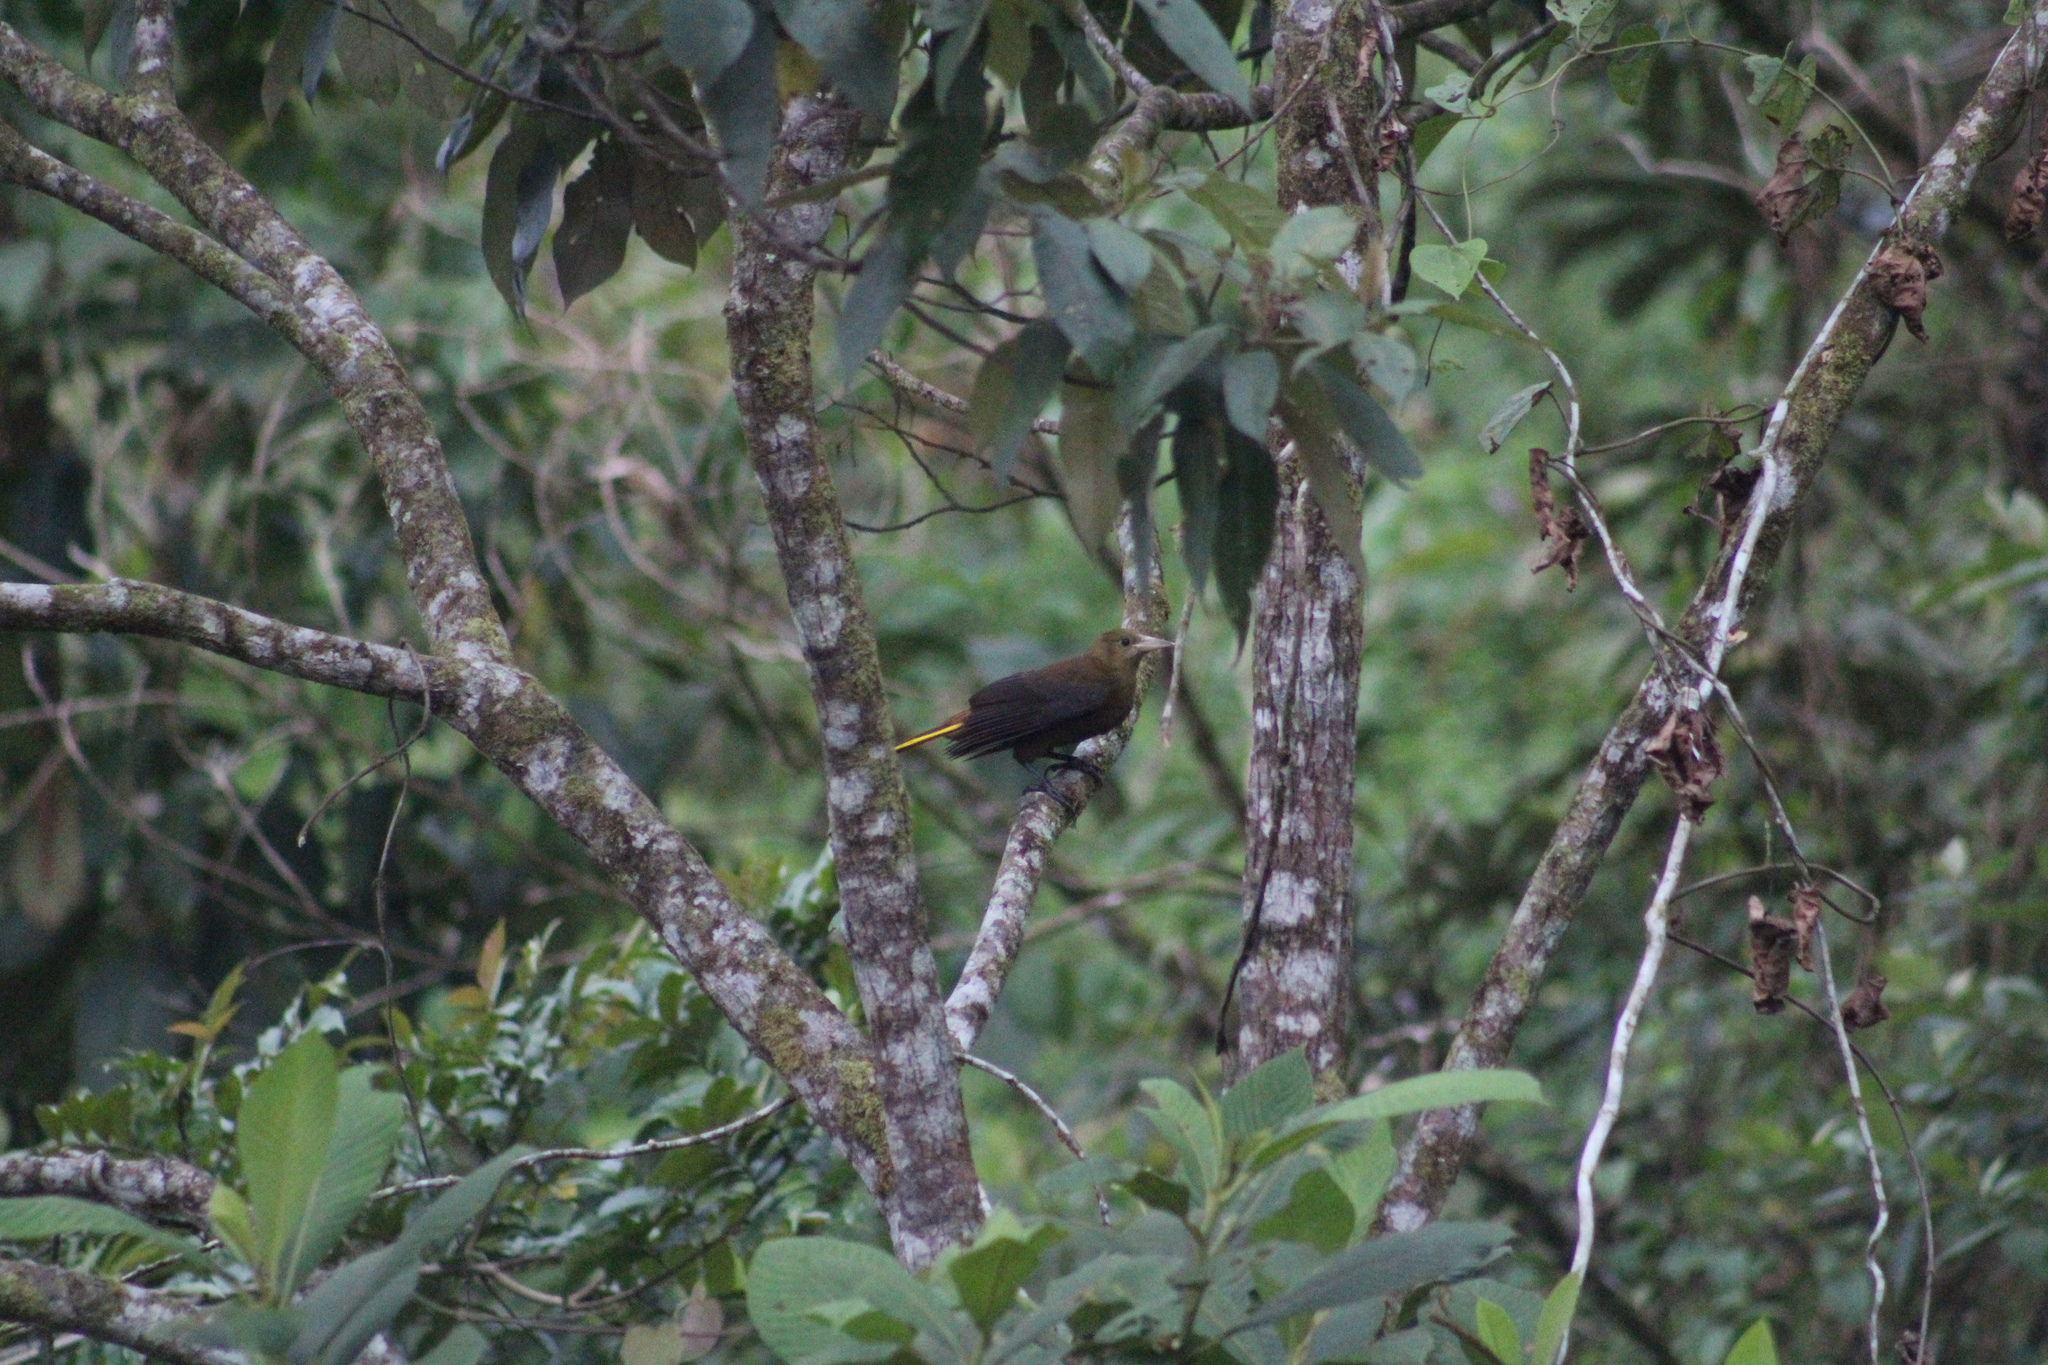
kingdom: Animalia
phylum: Chordata
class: Aves
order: Passeriformes
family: Icteridae
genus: Psarocolius
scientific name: Psarocolius angustifrons
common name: Russet-backed oropendola
